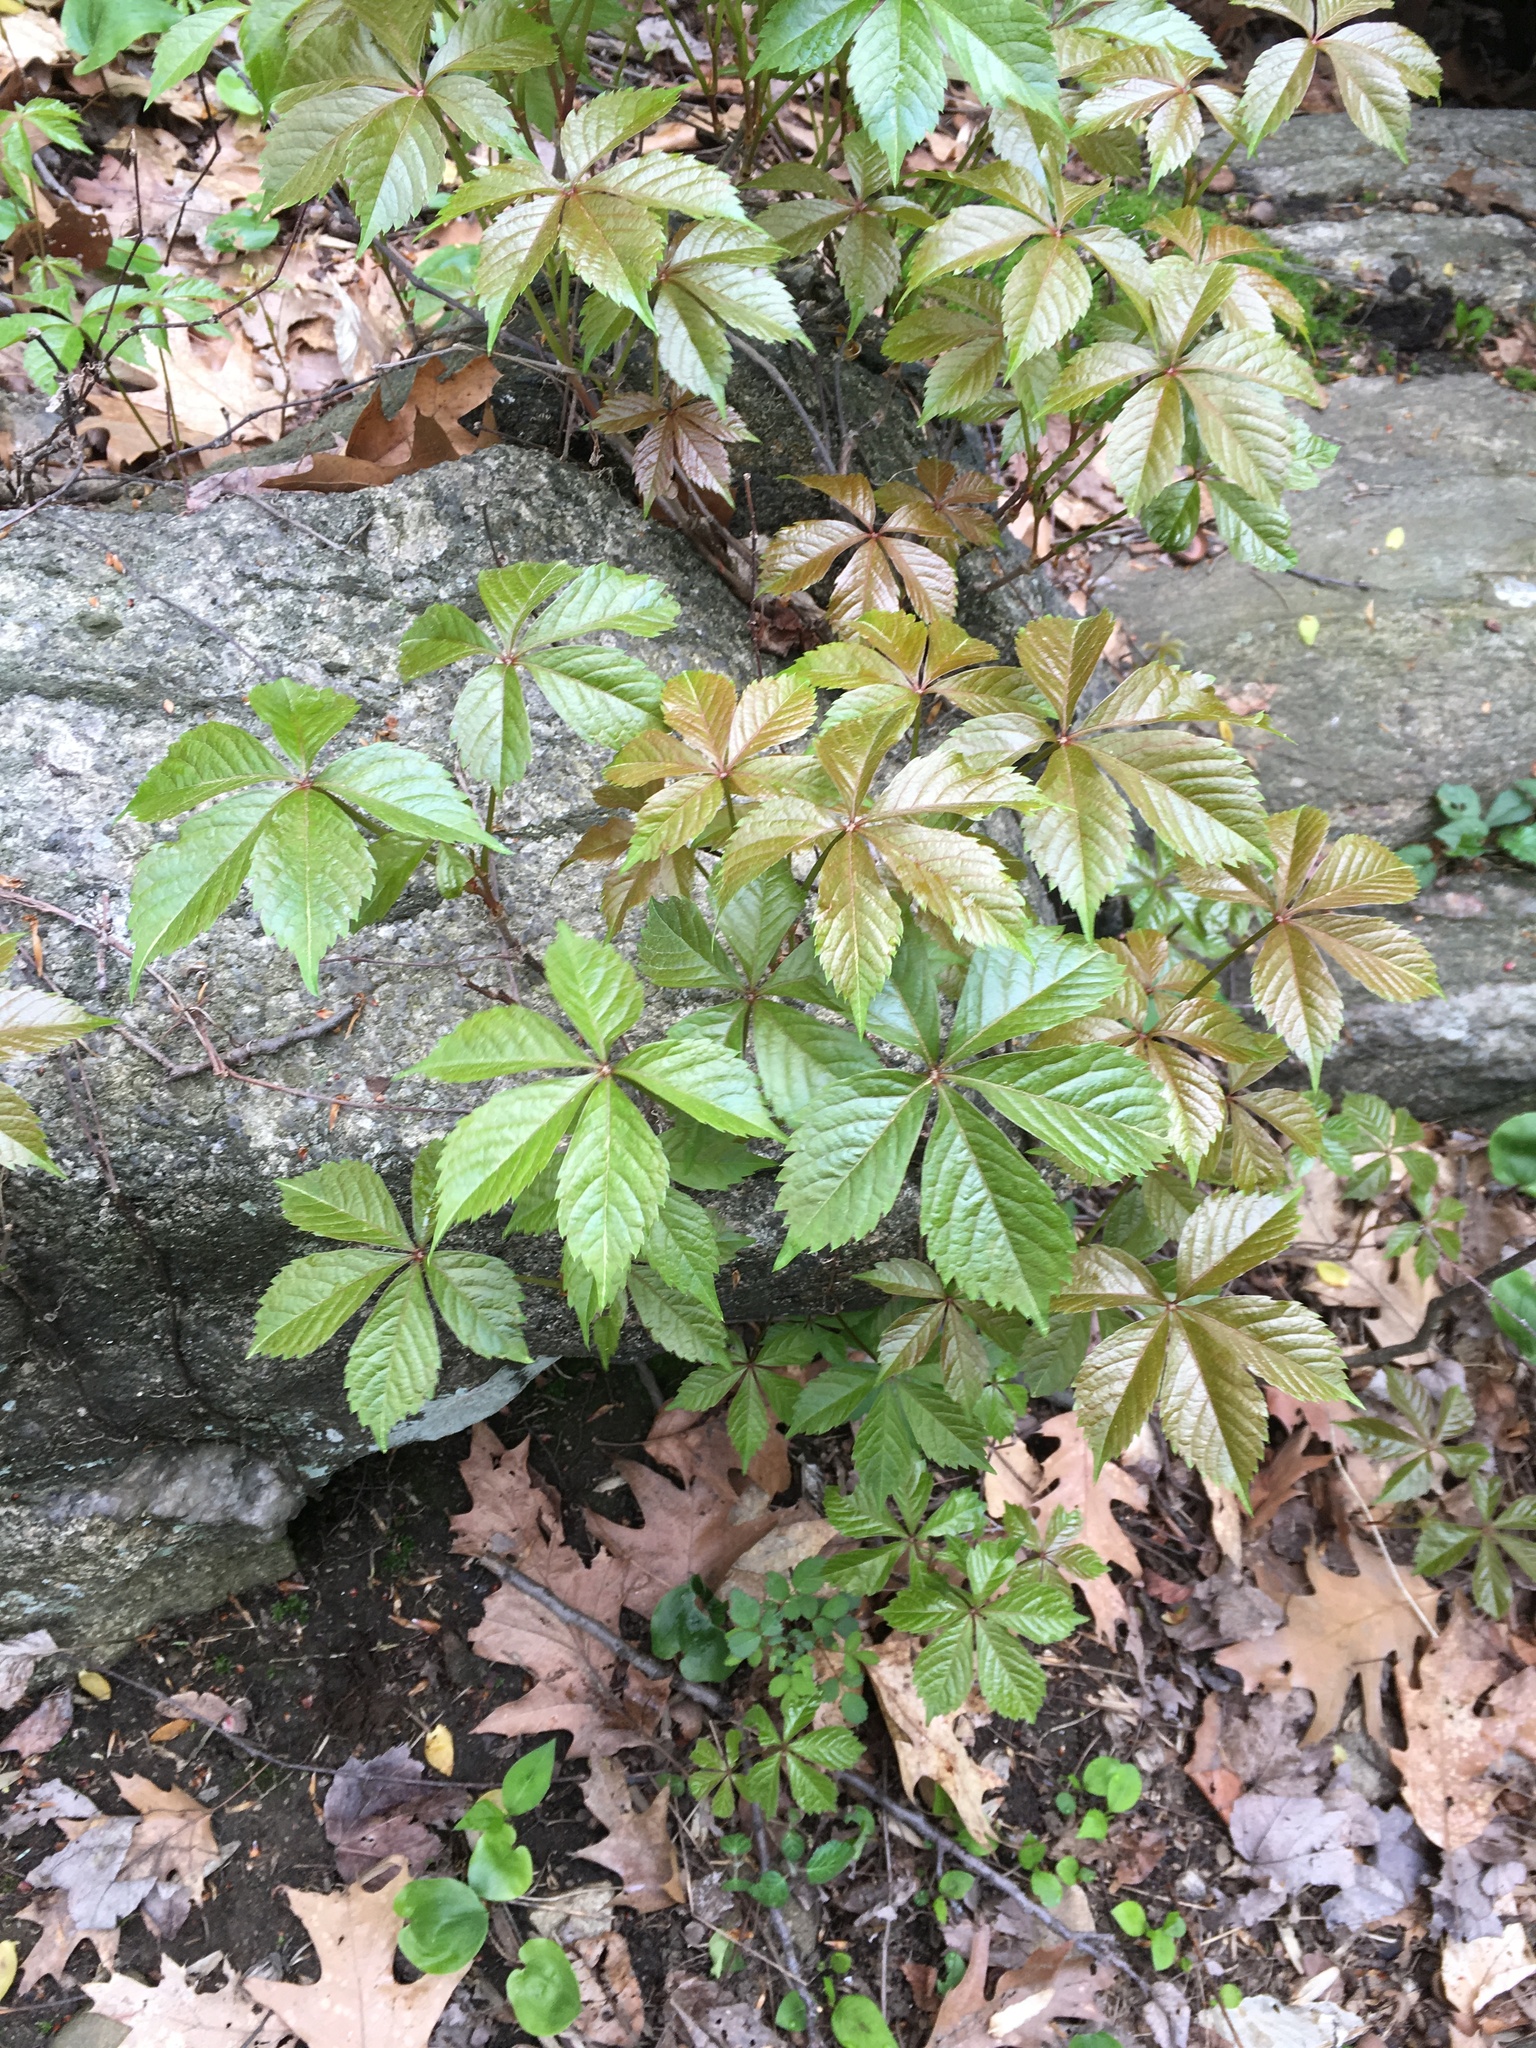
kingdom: Plantae
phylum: Tracheophyta
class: Magnoliopsida
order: Vitales
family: Vitaceae
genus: Parthenocissus
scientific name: Parthenocissus quinquefolia
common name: Virginia-creeper
